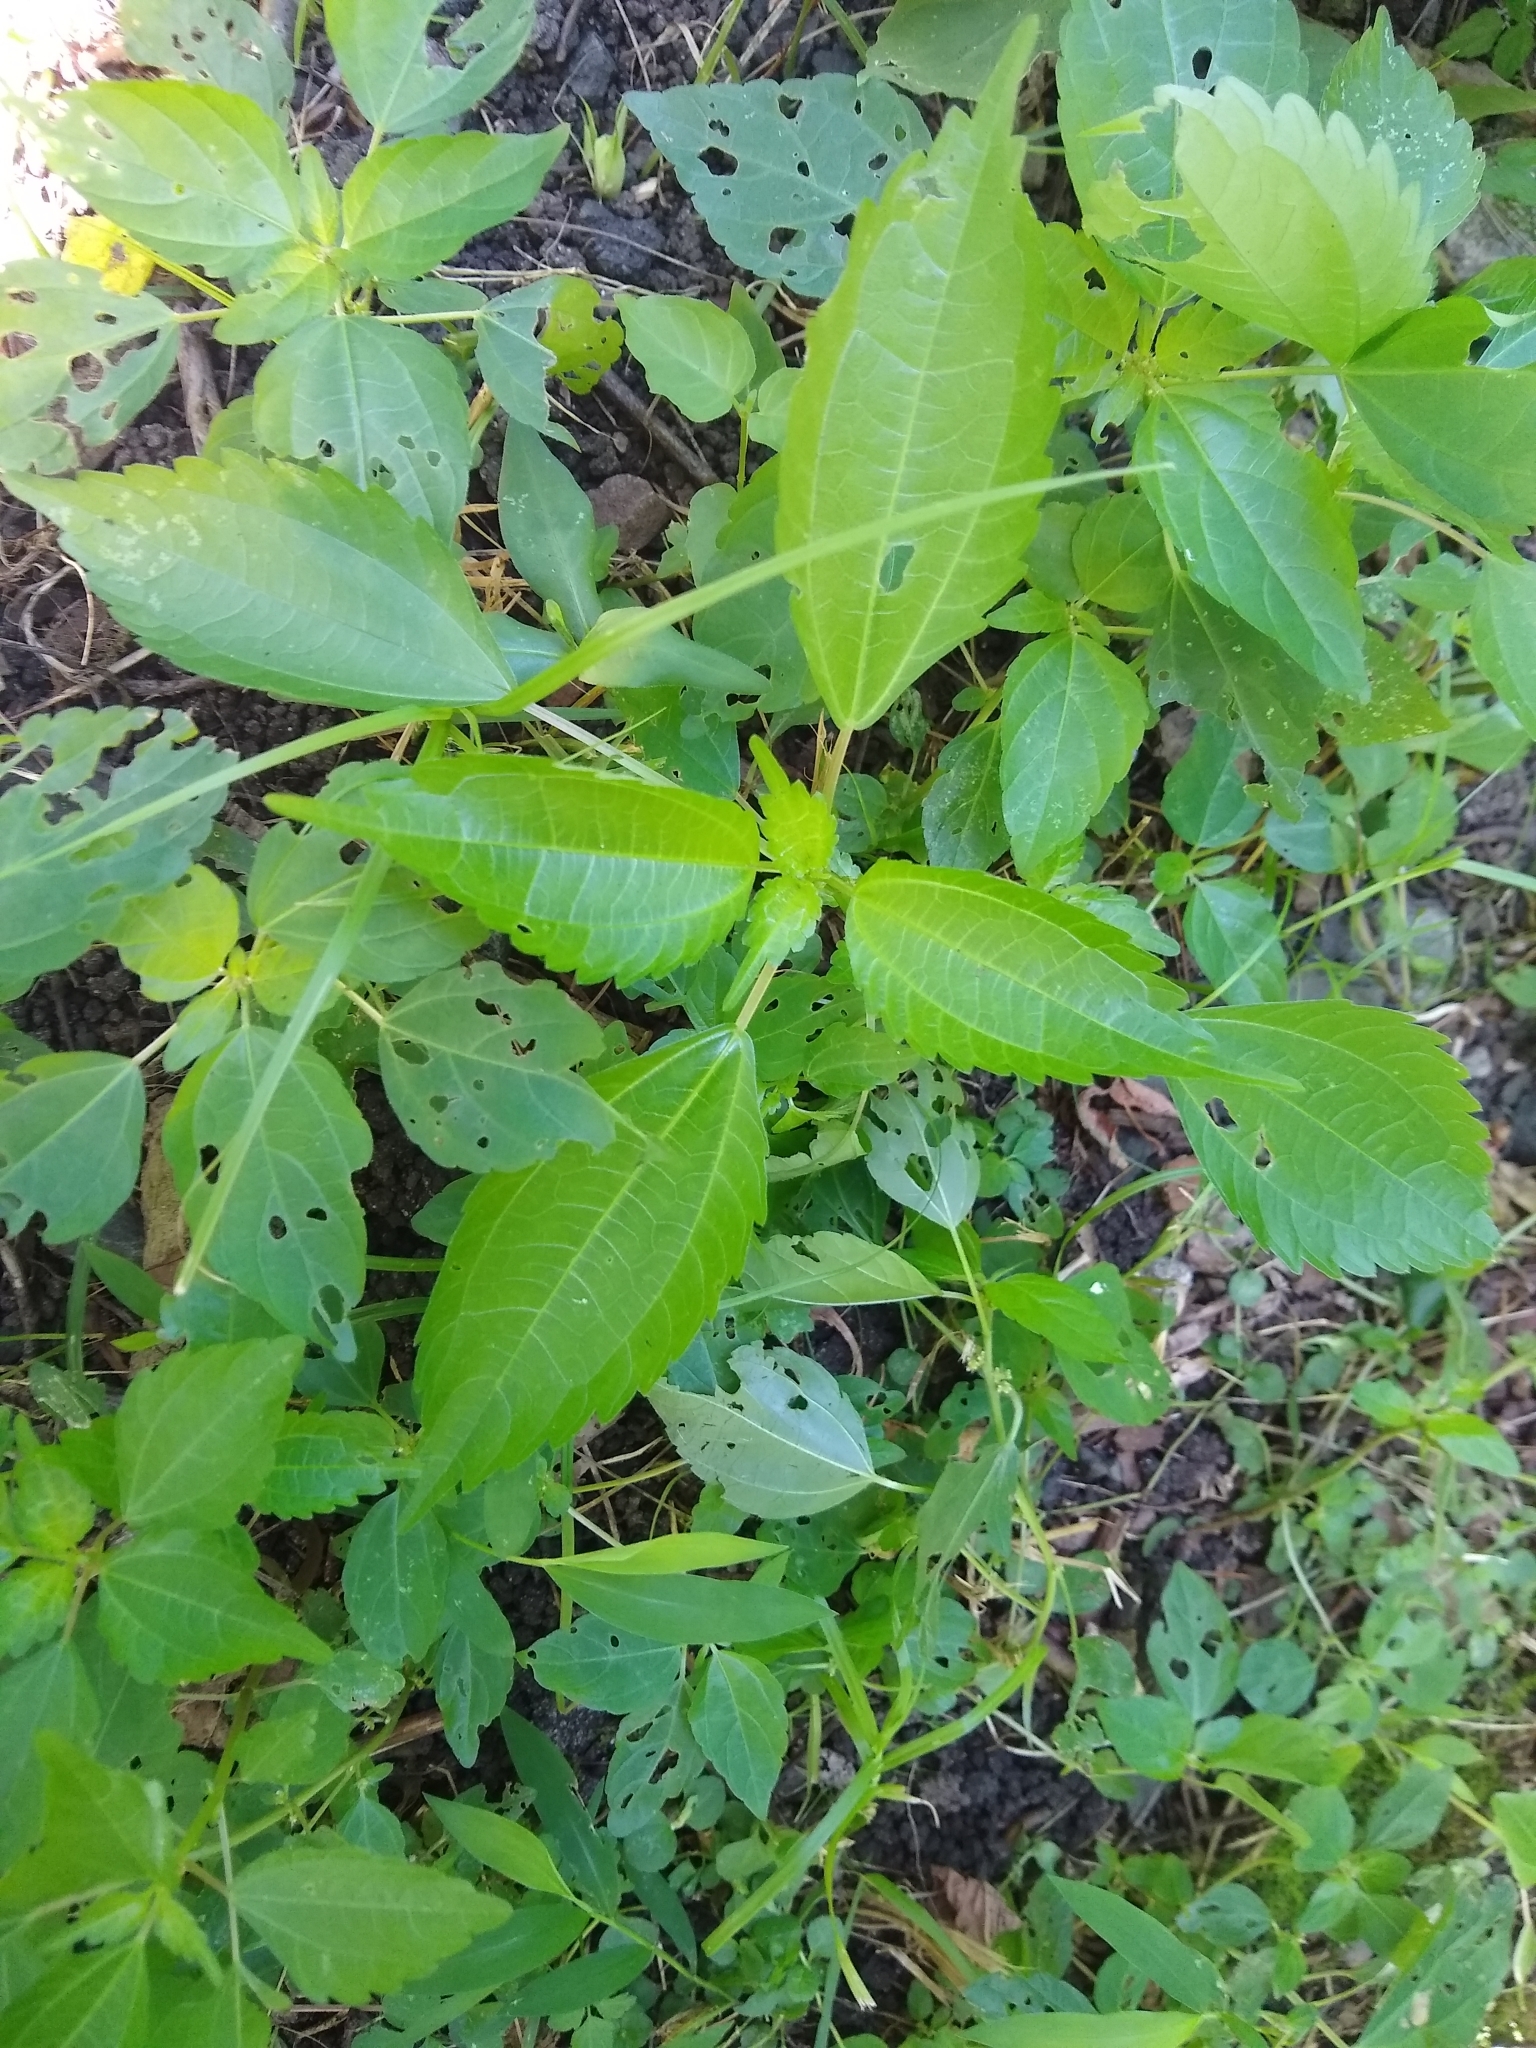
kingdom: Plantae
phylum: Tracheophyta
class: Magnoliopsida
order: Rosales
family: Urticaceae
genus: Pilea
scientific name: Pilea pumila
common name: Clearweed
